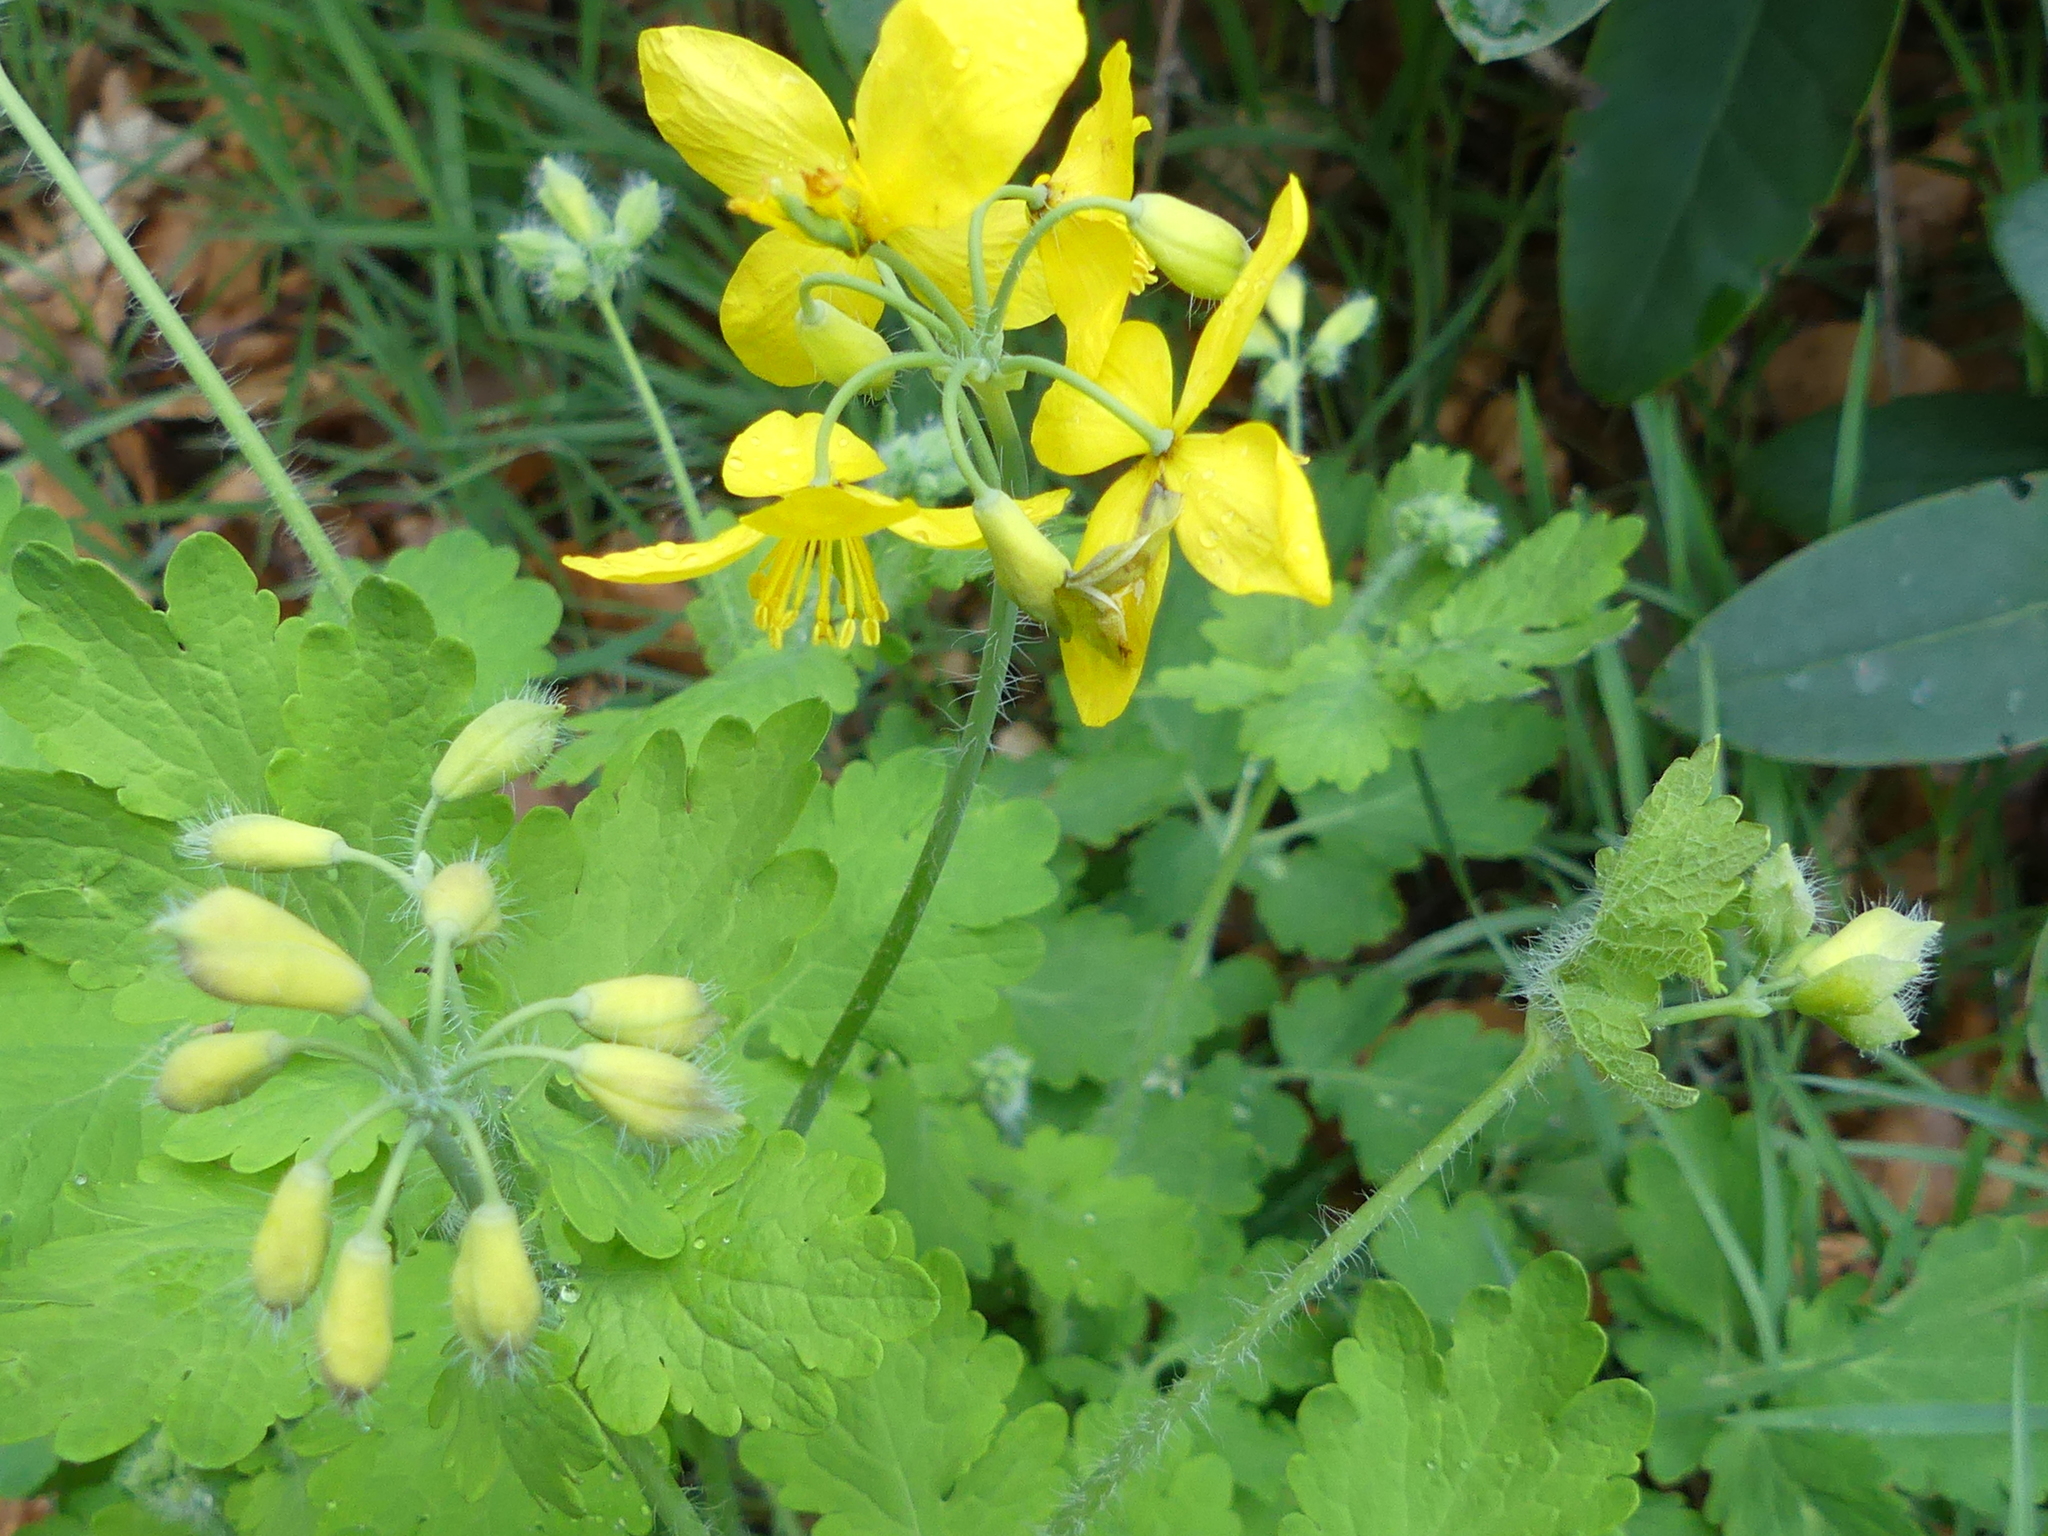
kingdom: Plantae
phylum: Tracheophyta
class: Magnoliopsida
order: Ranunculales
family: Papaveraceae
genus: Chelidonium
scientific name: Chelidonium majus
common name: Greater celandine
